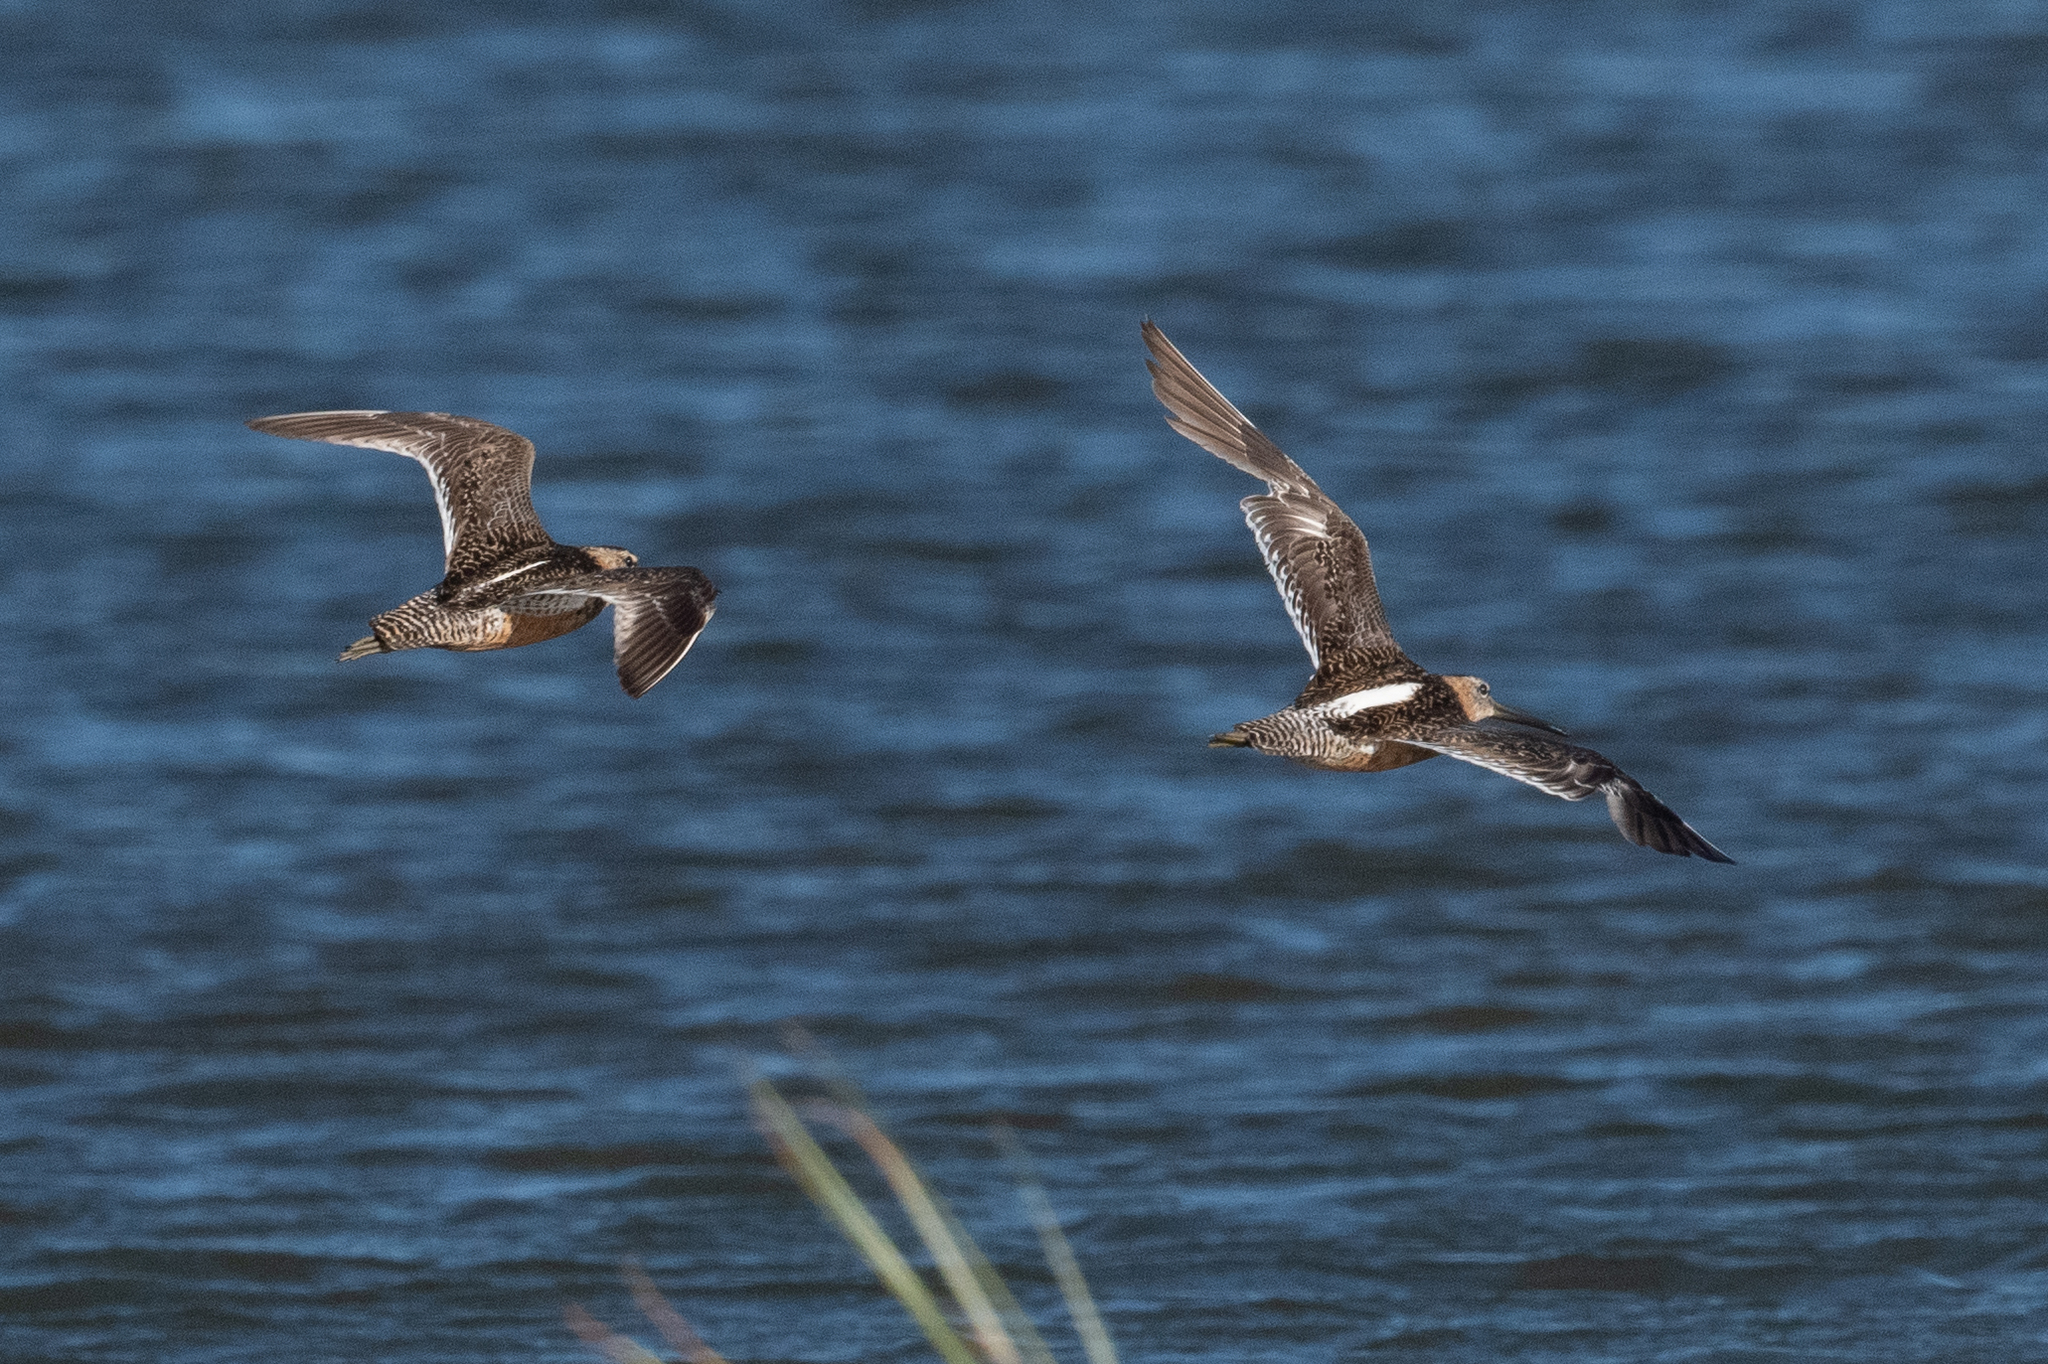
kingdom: Animalia
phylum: Chordata
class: Aves
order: Charadriiformes
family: Scolopacidae
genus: Limnodromus
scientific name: Limnodromus scolopaceus
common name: Long-billed dowitcher
